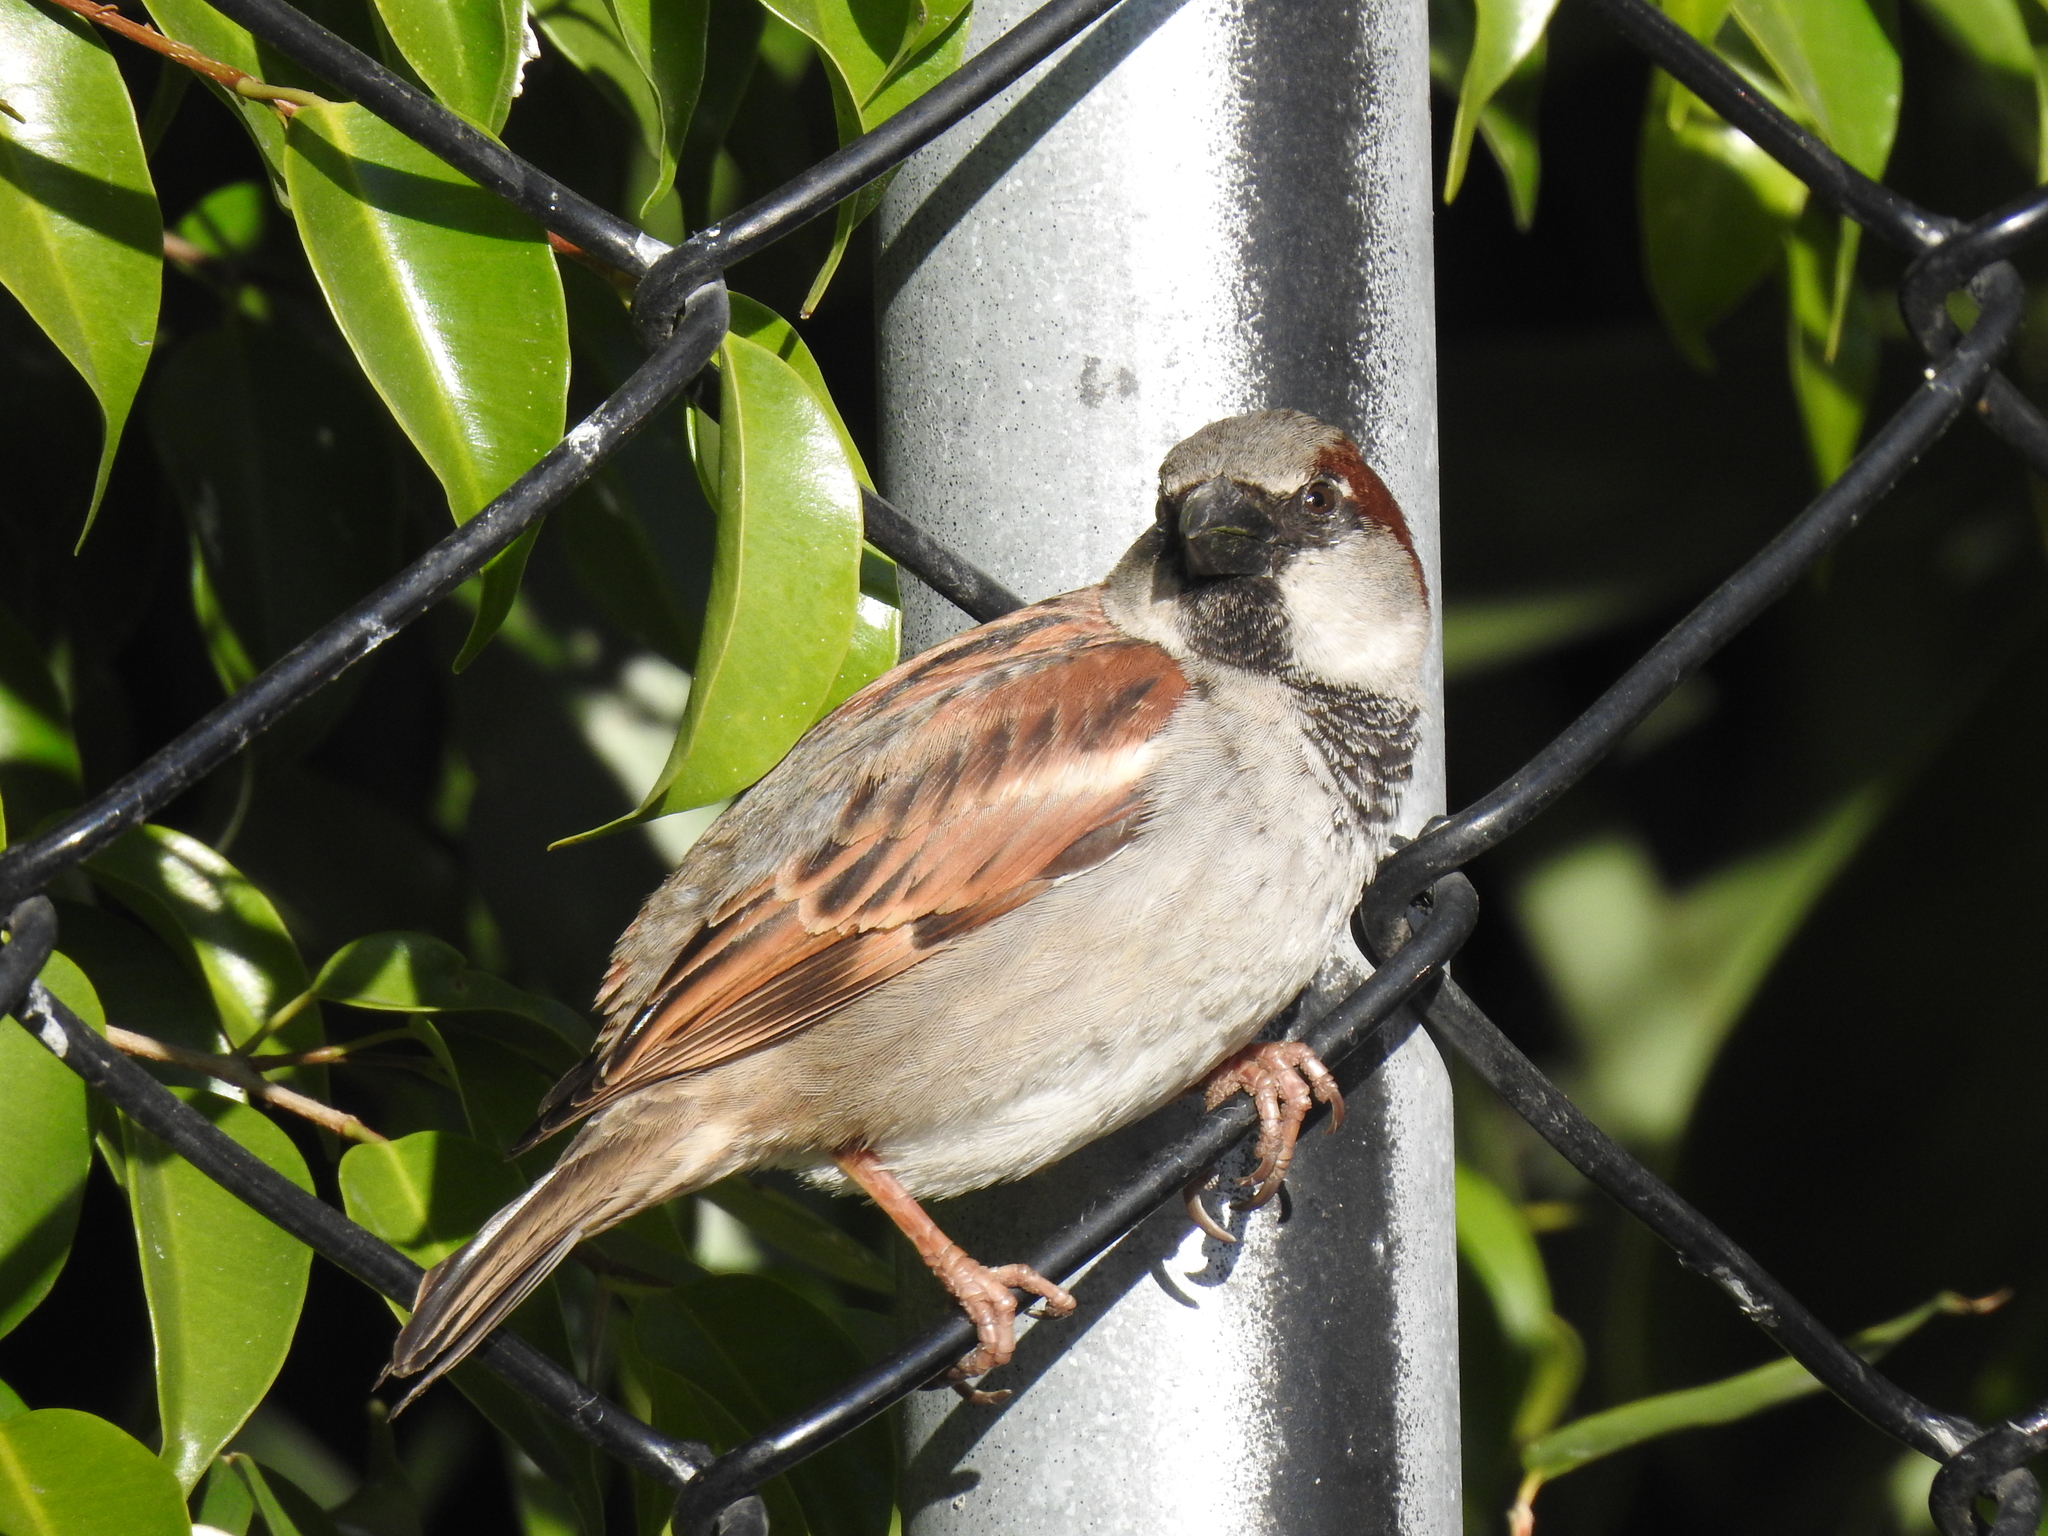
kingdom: Animalia
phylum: Chordata
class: Aves
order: Passeriformes
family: Passeridae
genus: Passer
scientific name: Passer domesticus
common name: House sparrow
